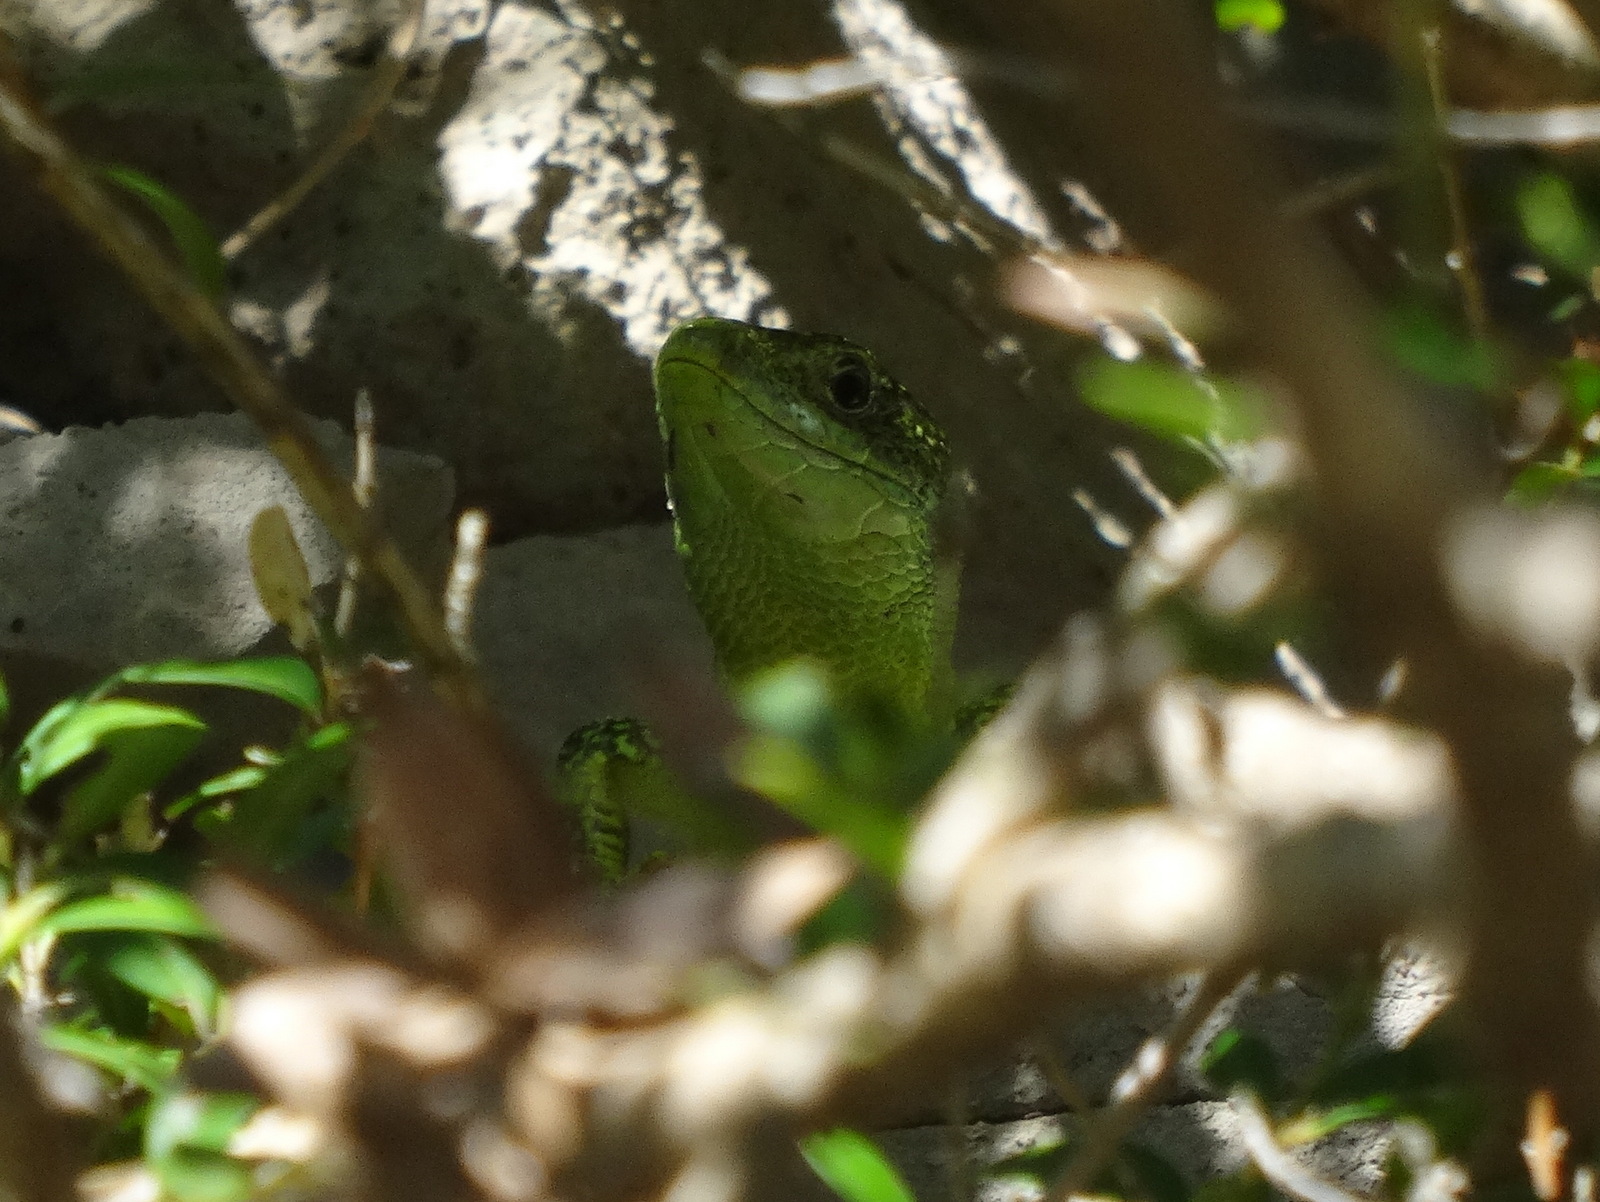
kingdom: Animalia
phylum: Chordata
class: Squamata
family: Lacertidae
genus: Lacerta
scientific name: Lacerta bilineata
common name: Western green lizard
